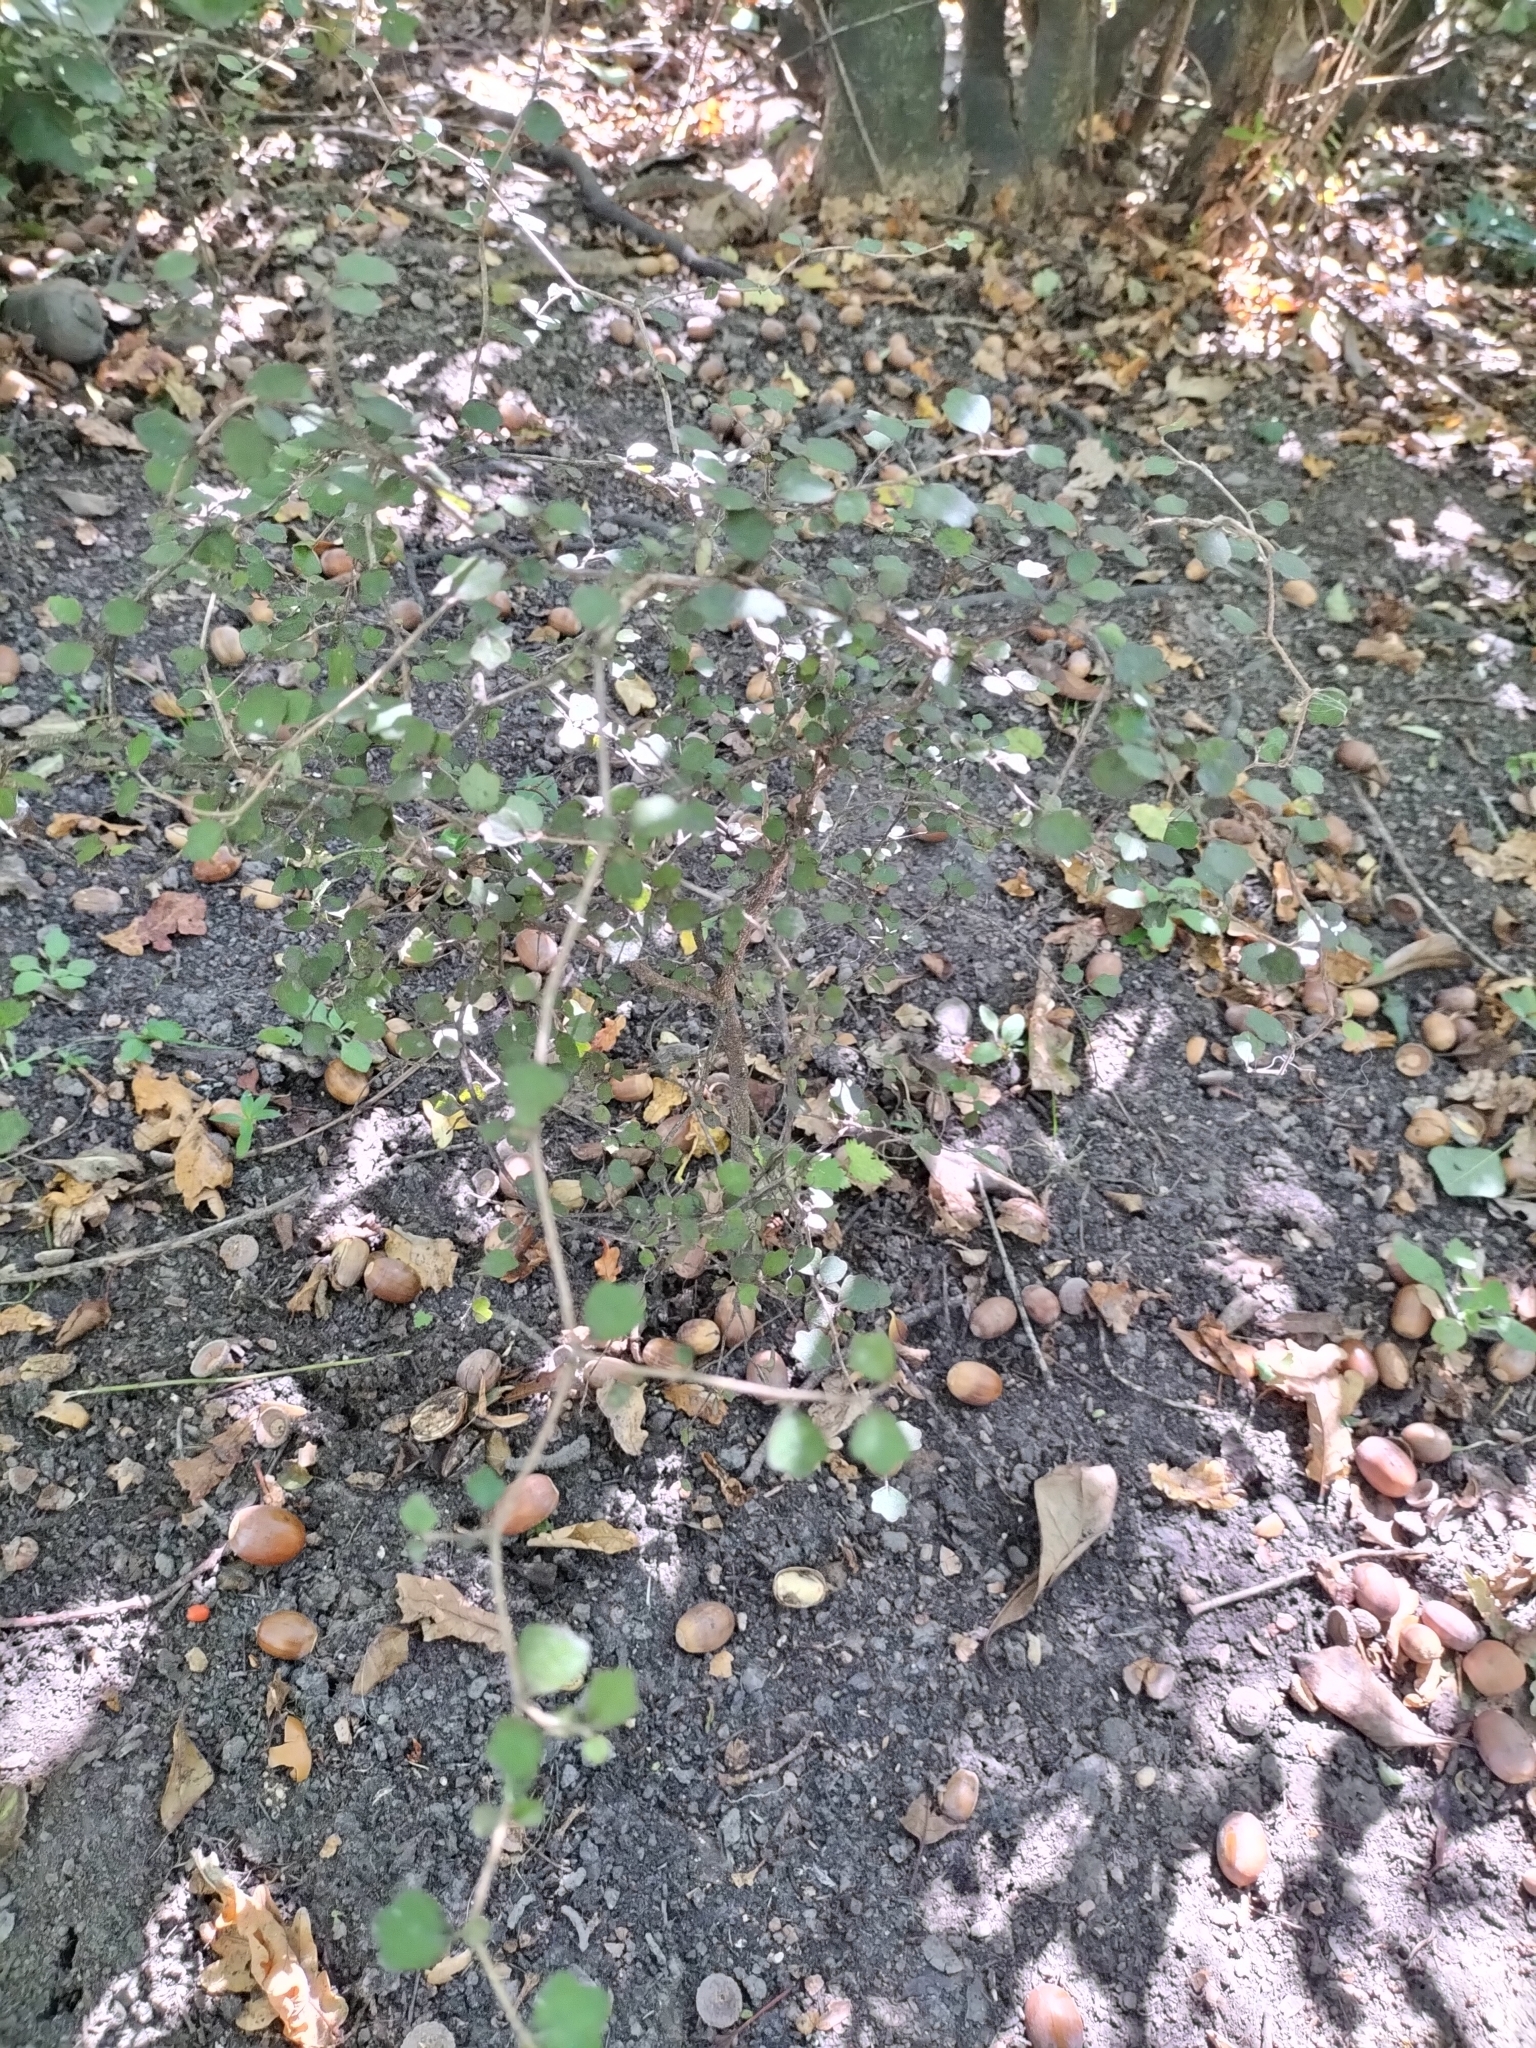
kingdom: Plantae
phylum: Tracheophyta
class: Magnoliopsida
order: Apiales
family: Pennantiaceae
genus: Pennantia
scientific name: Pennantia corymbosa
